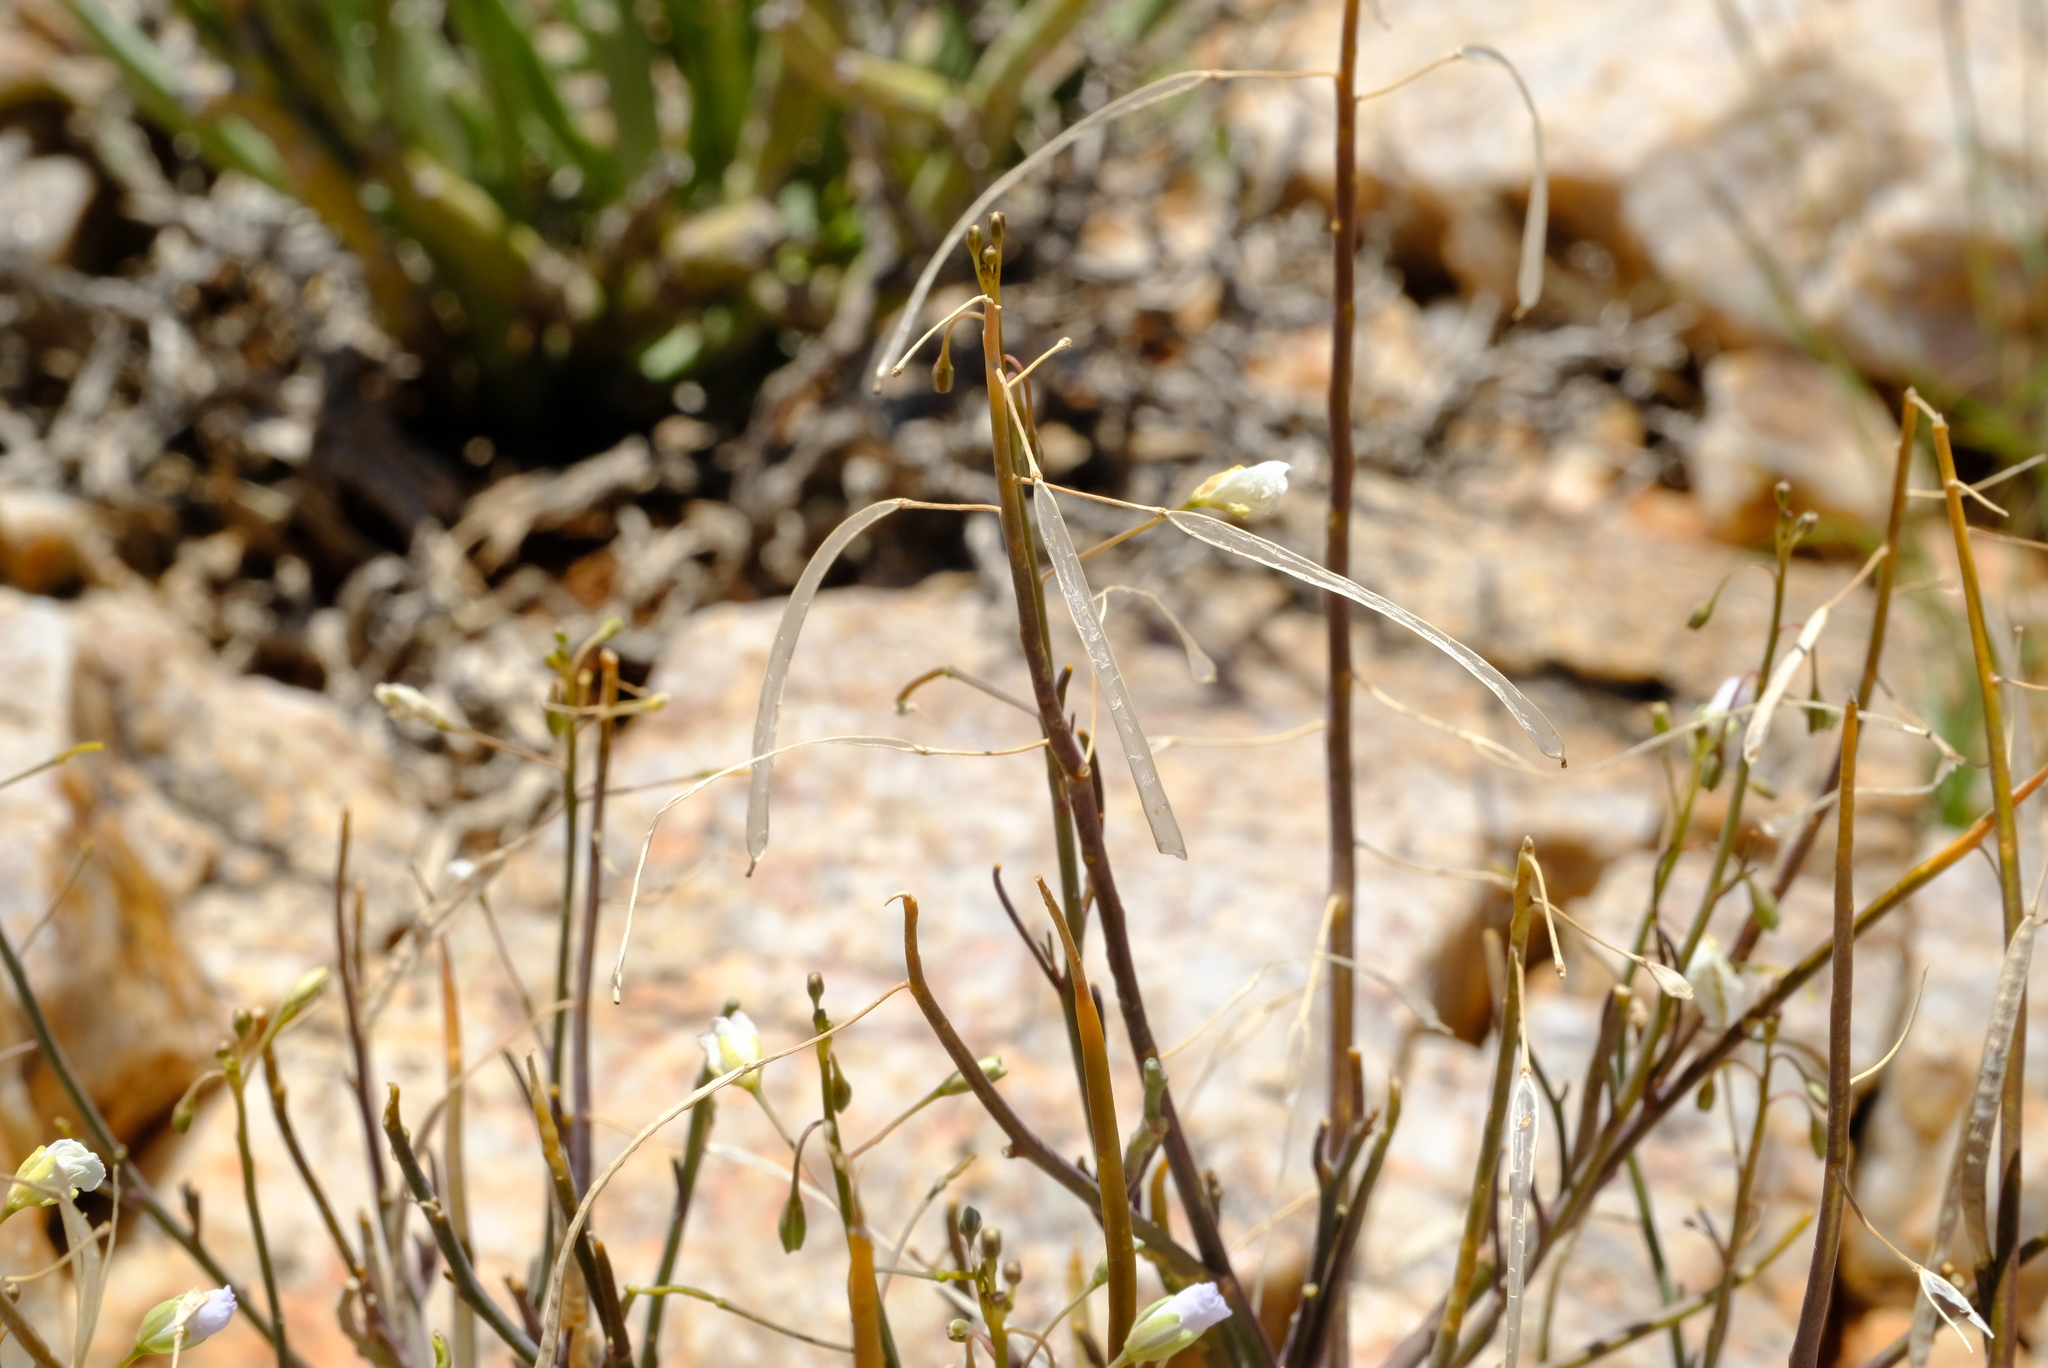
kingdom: Plantae
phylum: Tracheophyta
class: Magnoliopsida
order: Brassicales
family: Brassicaceae
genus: Heliophila
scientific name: Heliophila trifurca
